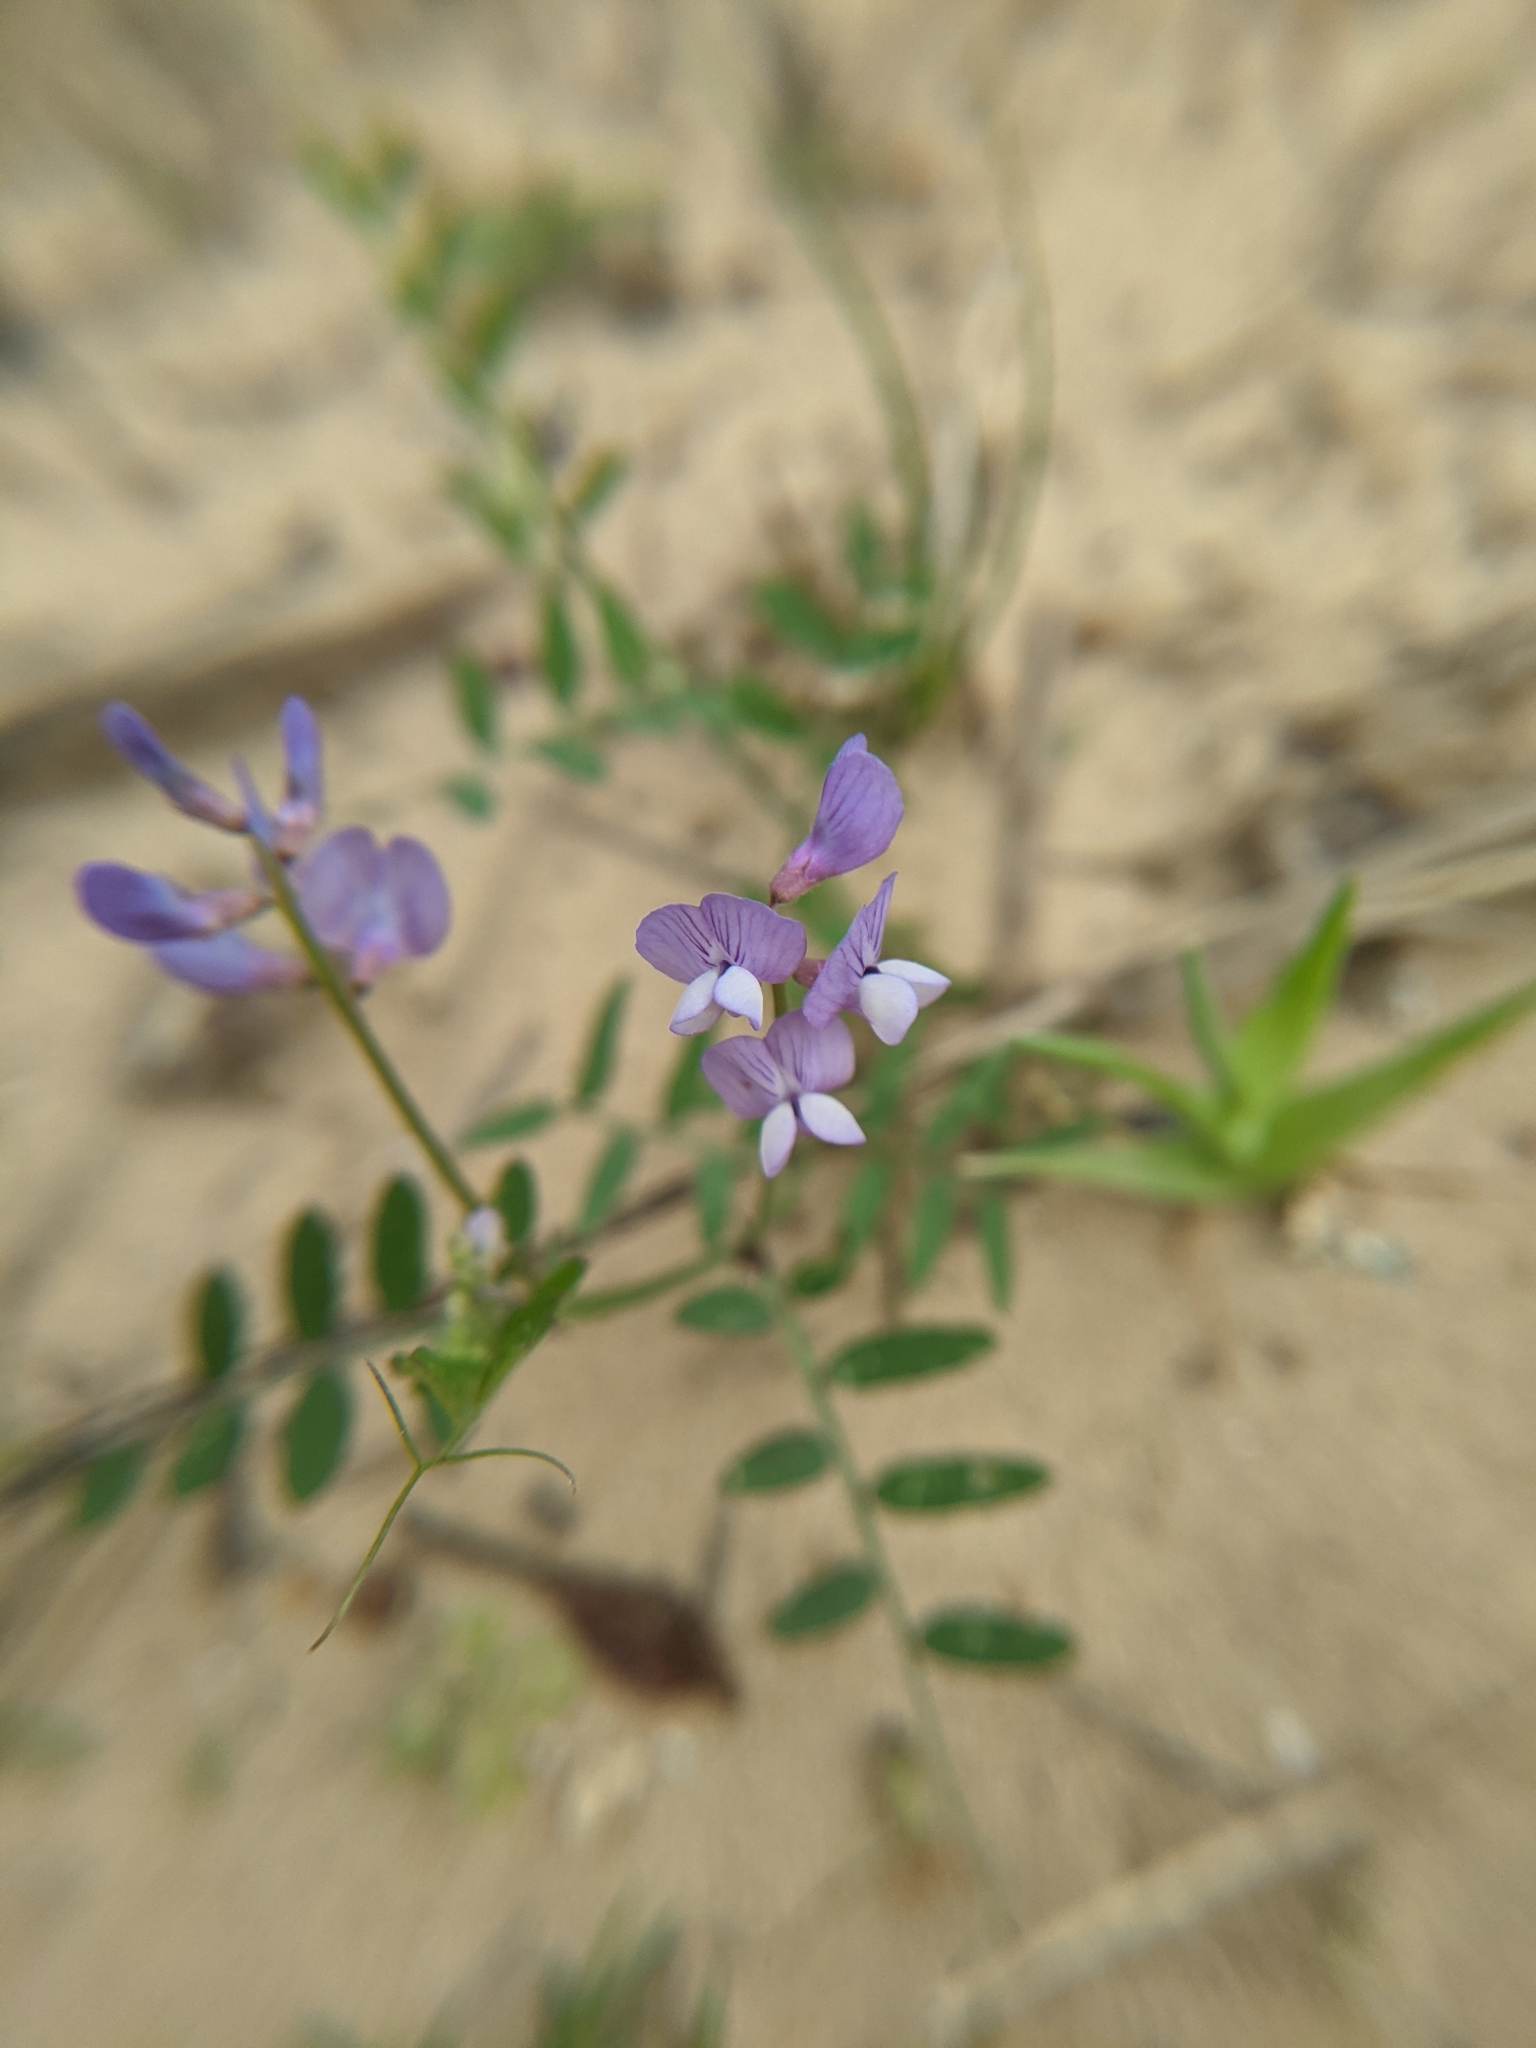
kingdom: Plantae
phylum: Tracheophyta
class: Magnoliopsida
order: Fabales
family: Fabaceae
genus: Vicia
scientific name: Vicia ludoviciana
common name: Louisiana vetch
